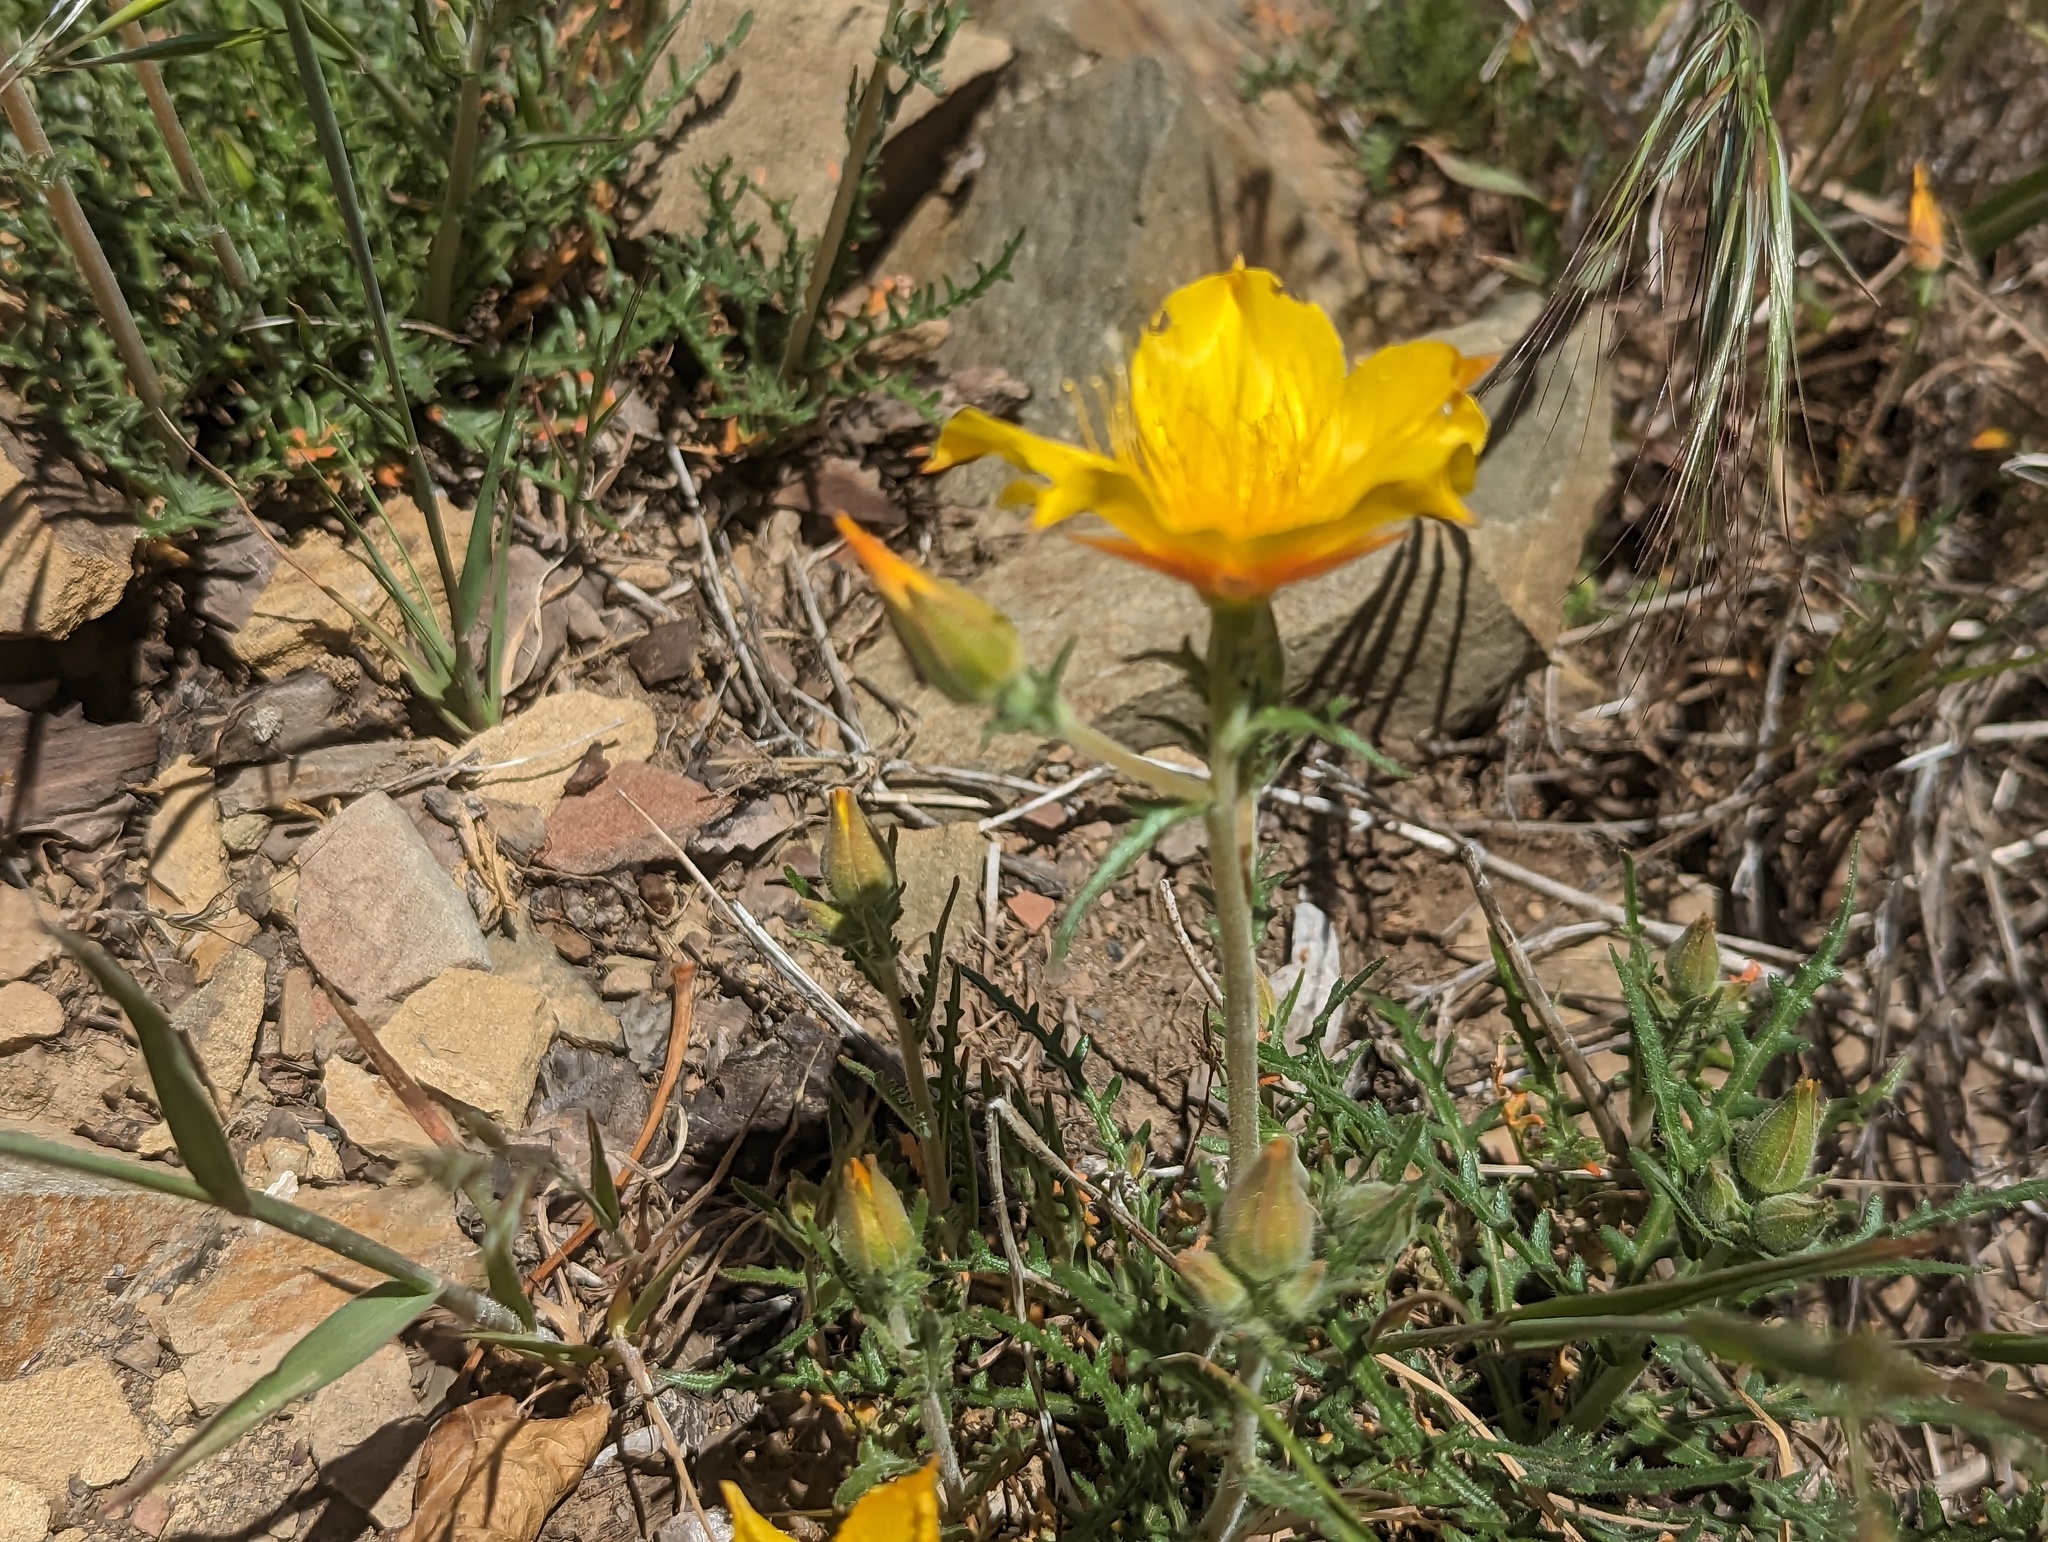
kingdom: Plantae
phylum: Tracheophyta
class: Magnoliopsida
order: Cornales
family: Loasaceae
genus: Mentzelia
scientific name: Mentzelia lindleyi
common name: Golden bartonia
